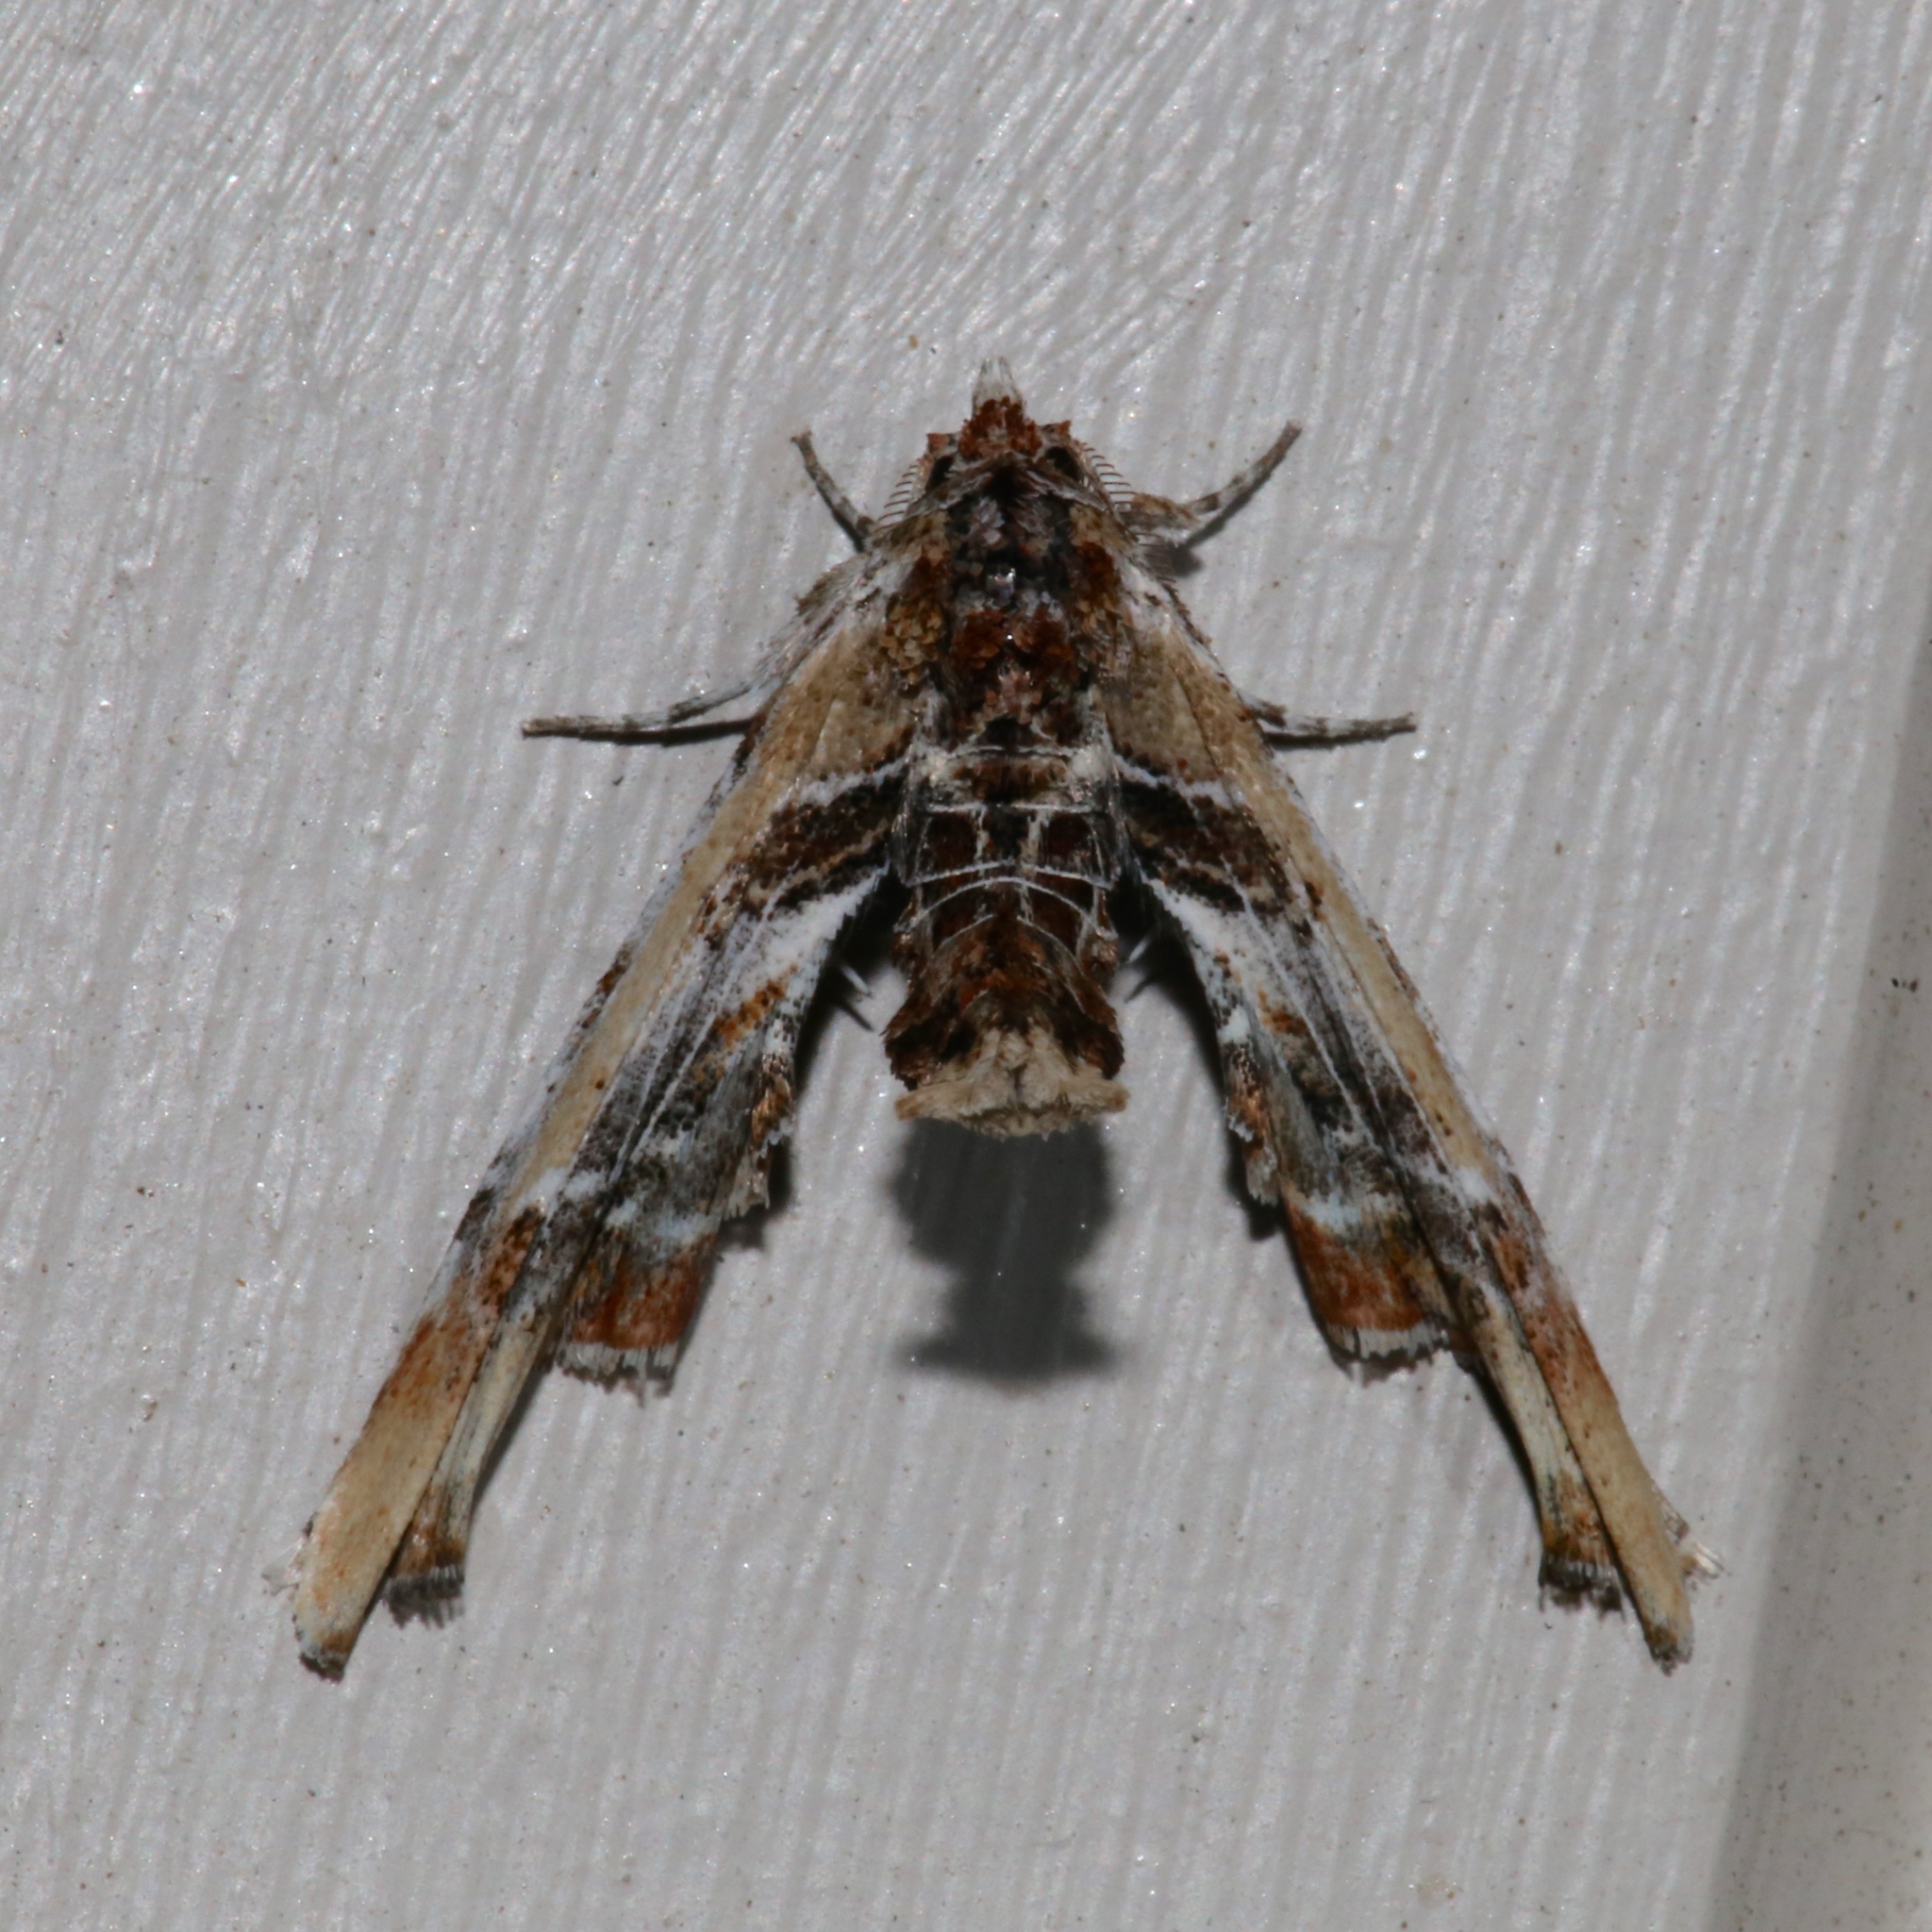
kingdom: Animalia
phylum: Arthropoda
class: Insecta
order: Lepidoptera
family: Euteliidae
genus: Marathyssa
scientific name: Marathyssa basalis
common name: Light marathyssa moth
